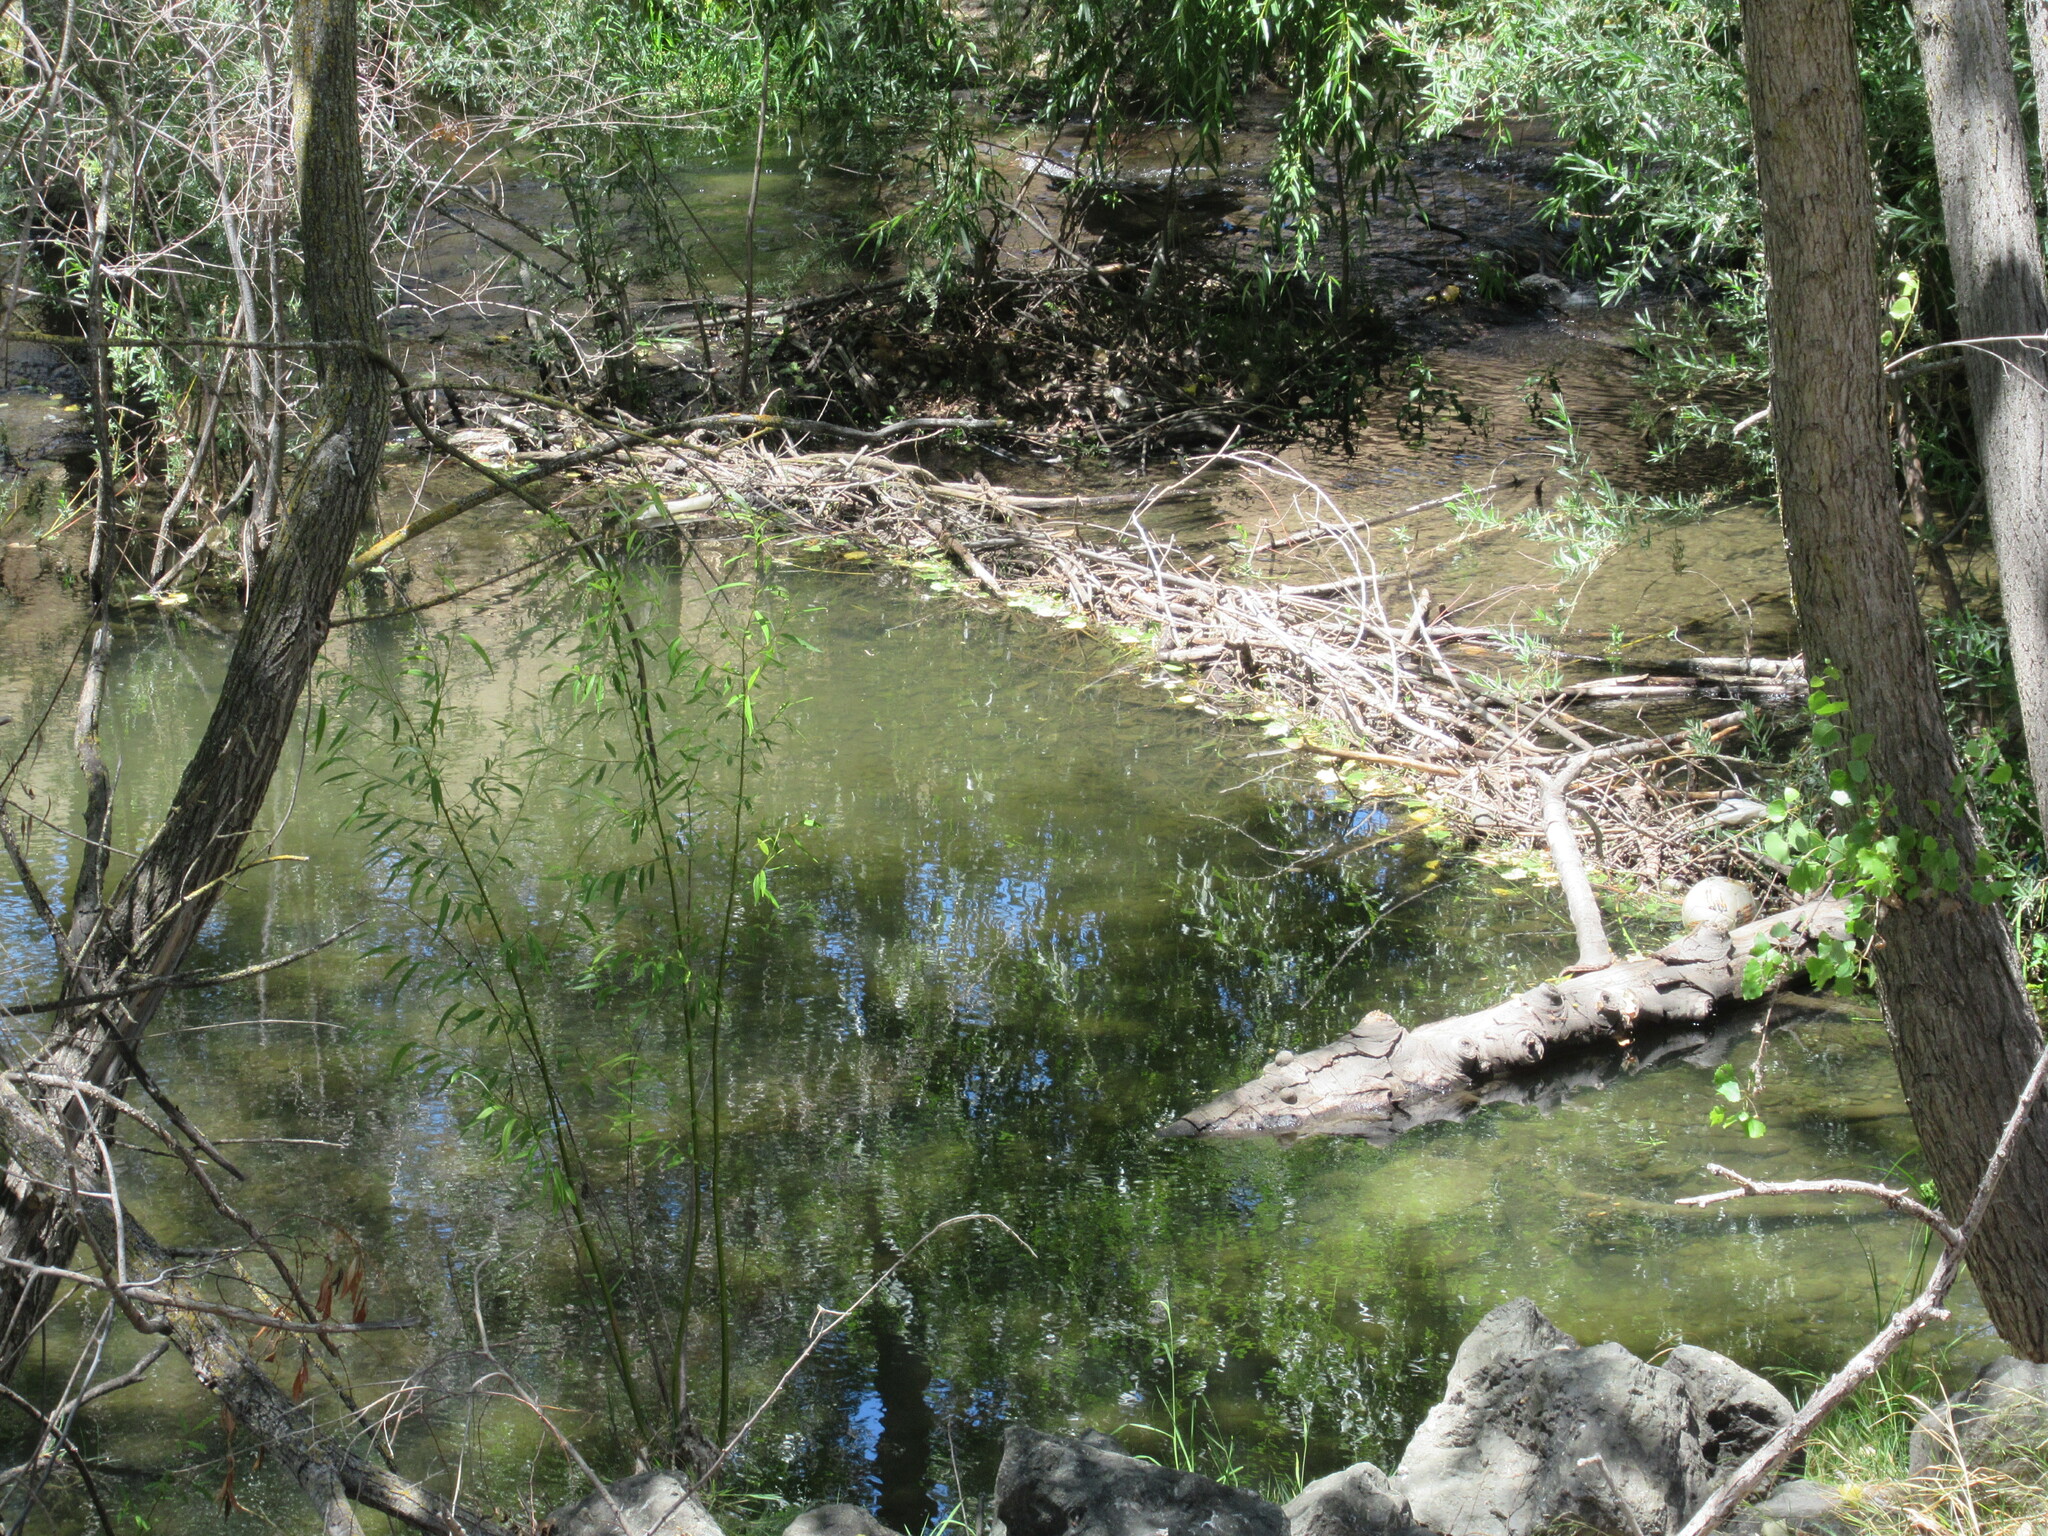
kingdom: Animalia
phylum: Chordata
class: Mammalia
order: Rodentia
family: Castoridae
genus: Castor
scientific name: Castor canadensis
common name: American beaver
